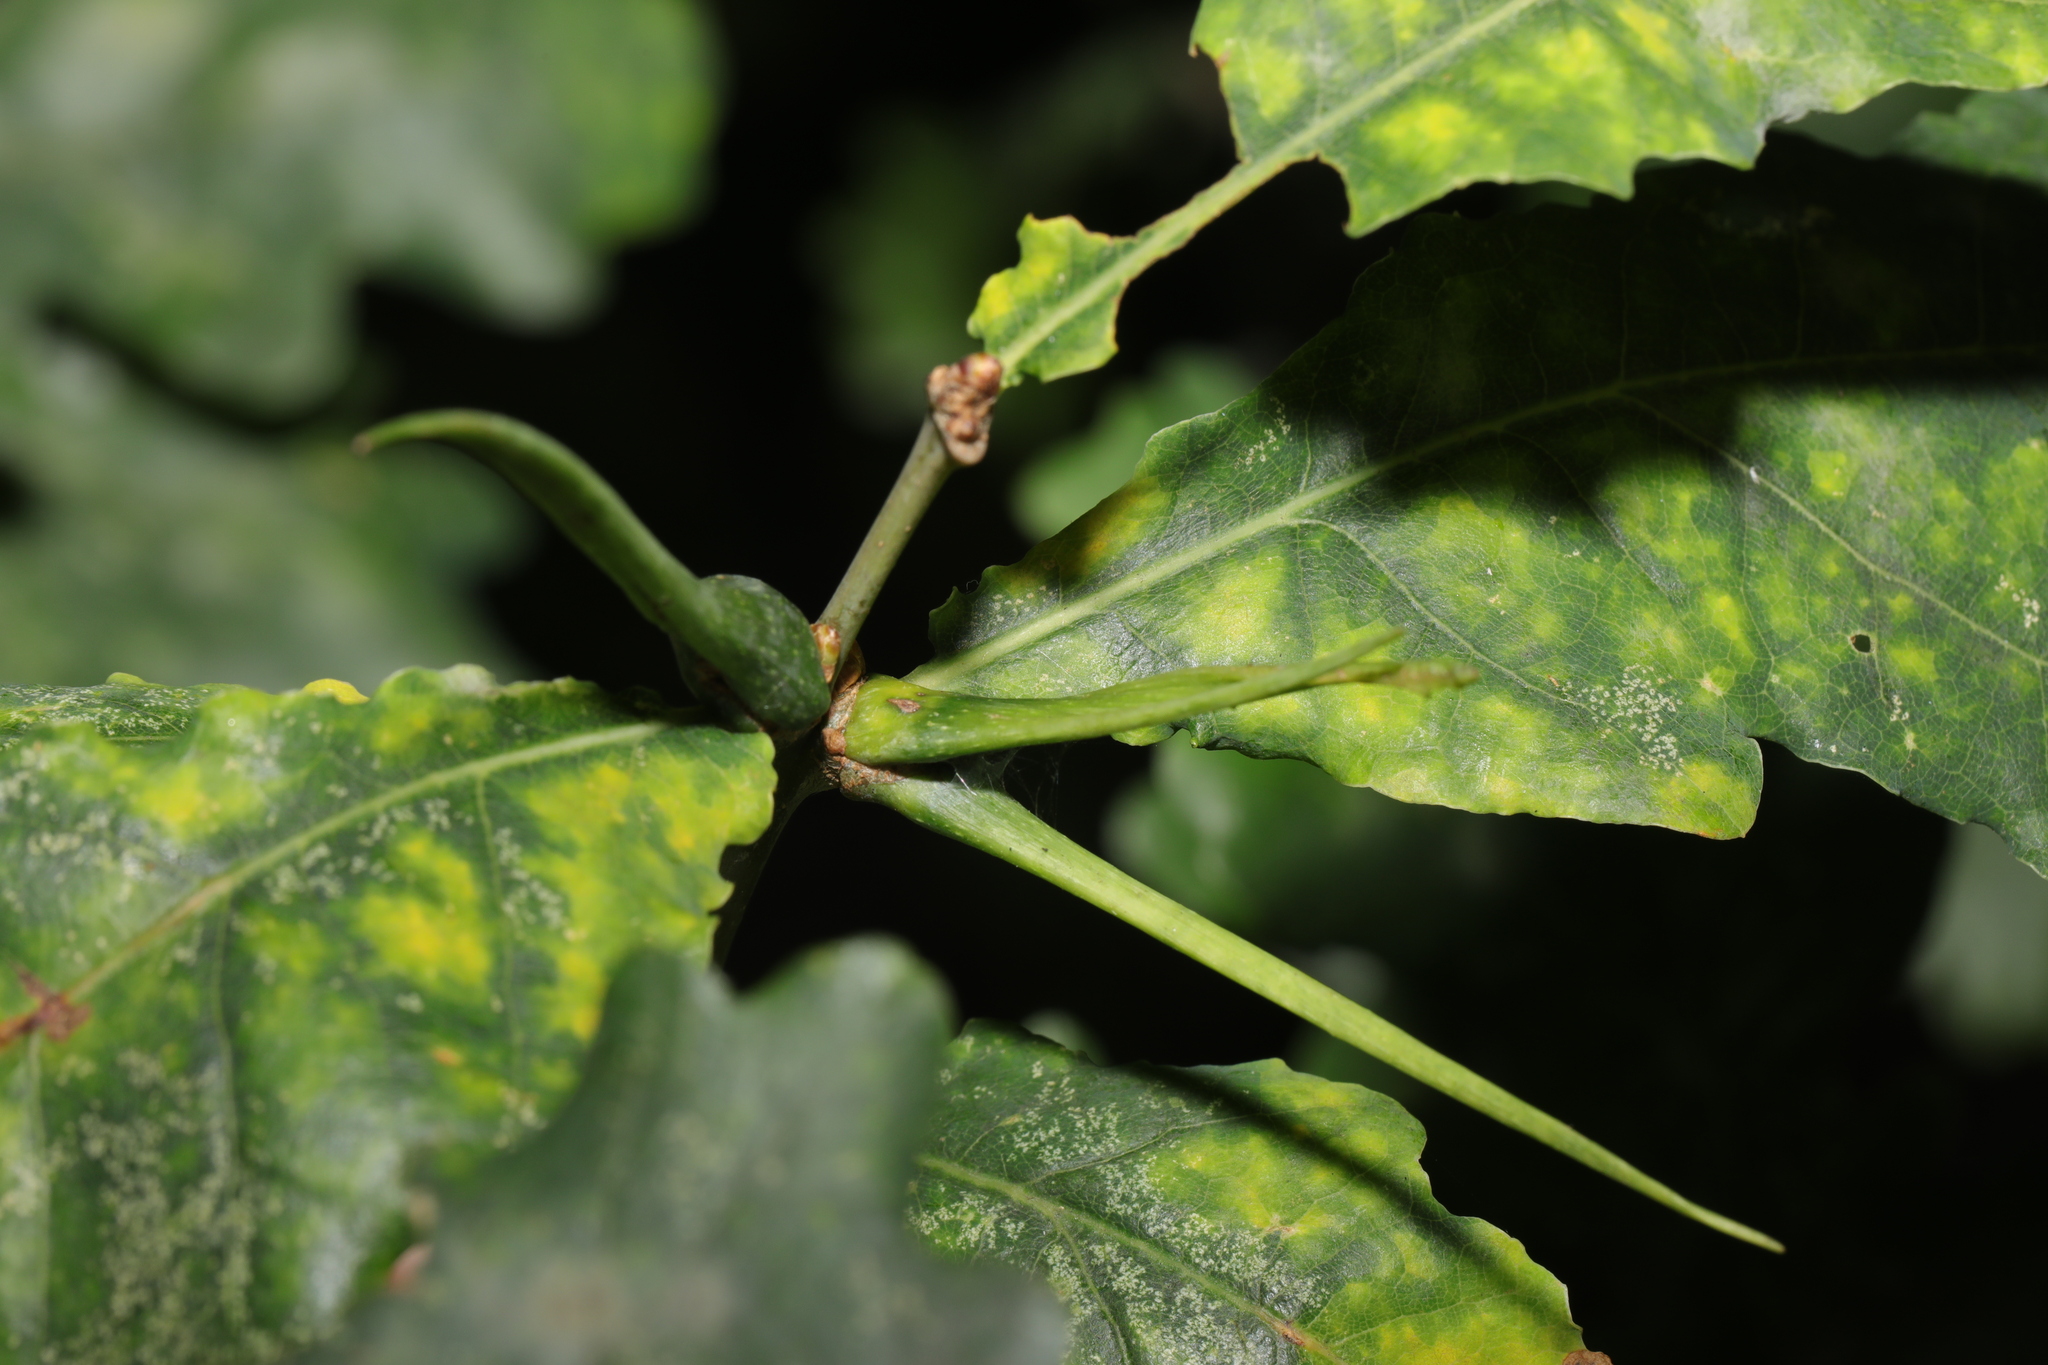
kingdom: Animalia
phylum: Arthropoda
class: Insecta
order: Hymenoptera
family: Cynipidae
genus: Andricus
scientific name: Andricus aries
